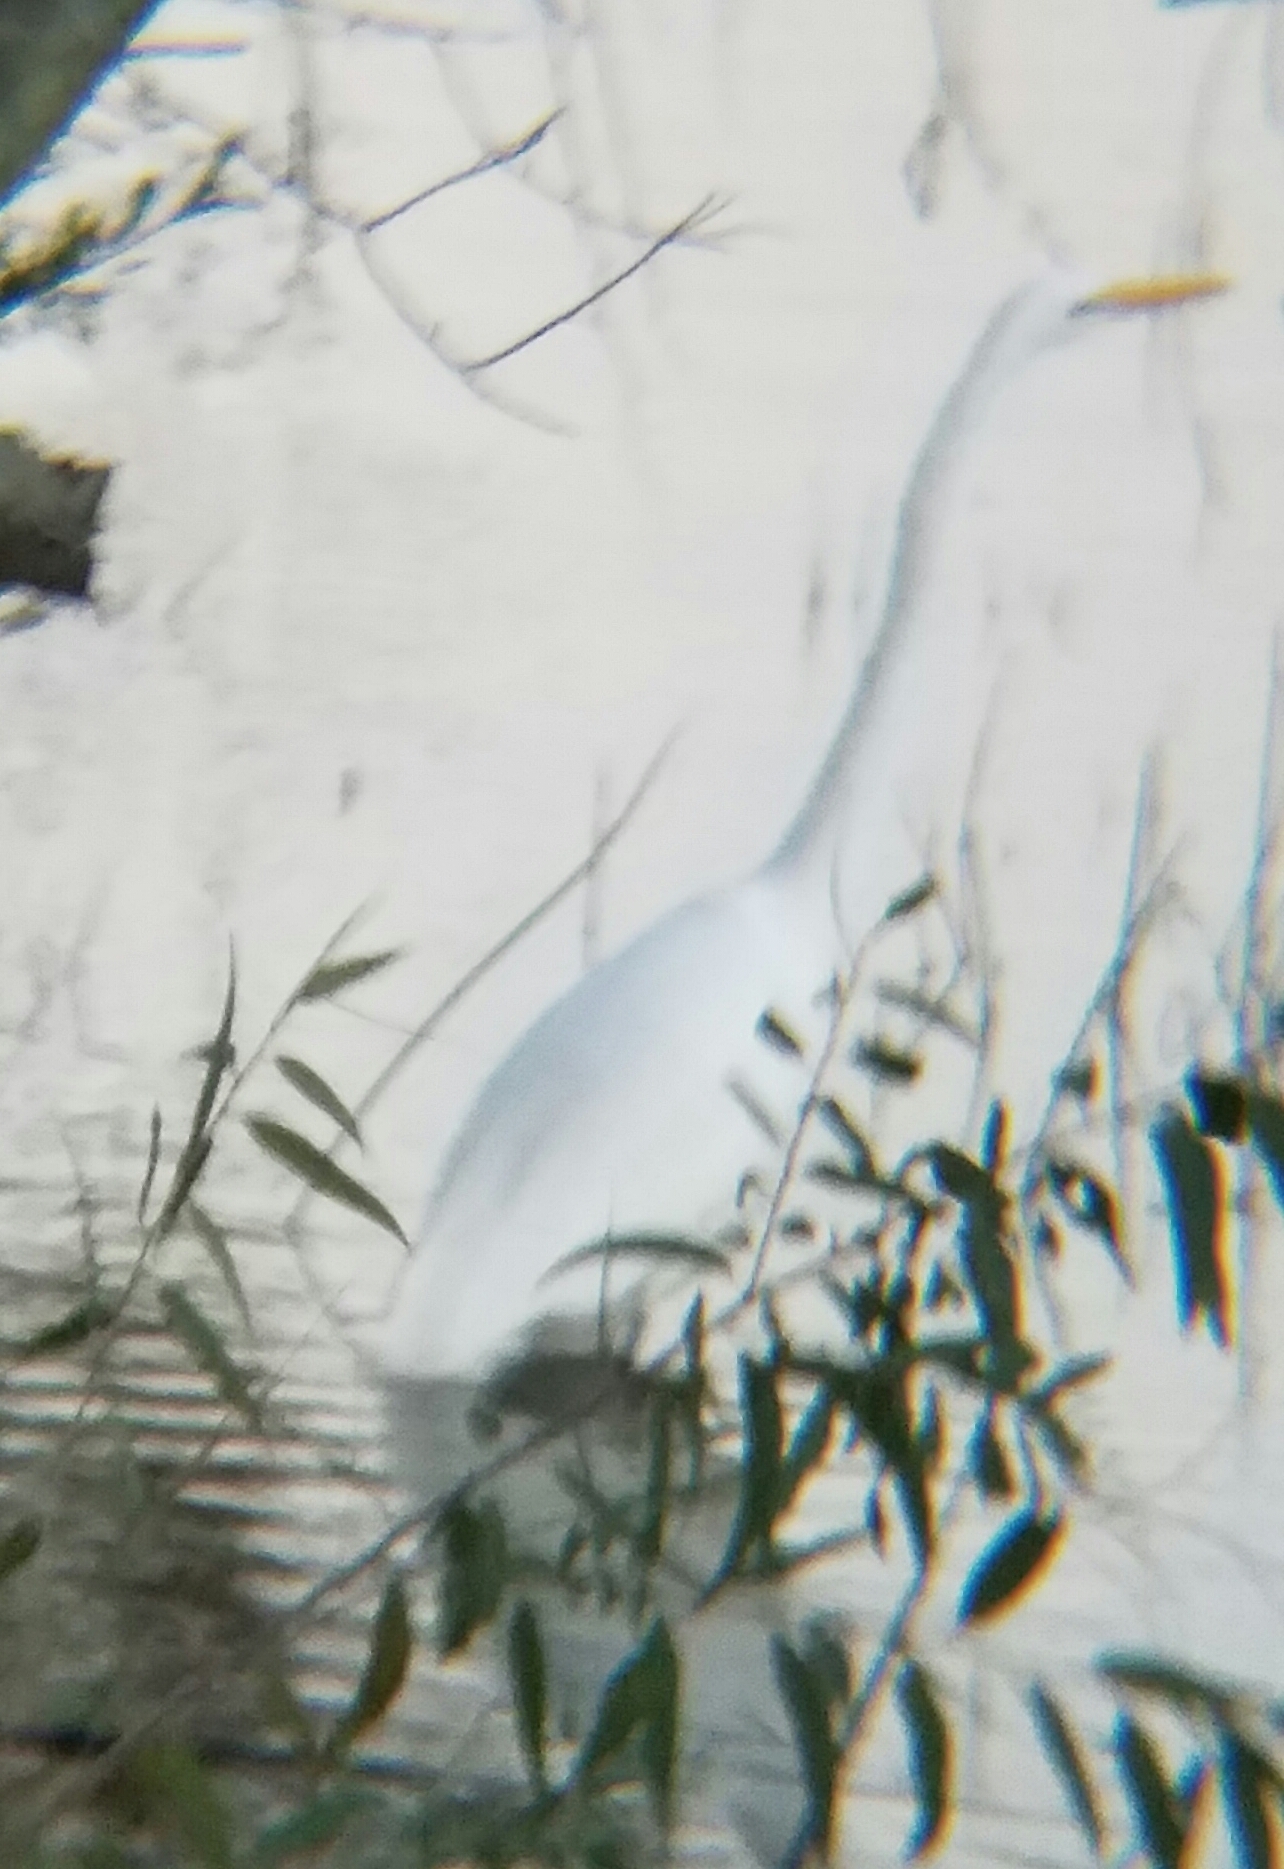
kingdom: Animalia
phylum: Chordata
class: Aves
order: Pelecaniformes
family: Ardeidae
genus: Ardea
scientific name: Ardea alba
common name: Great egret
